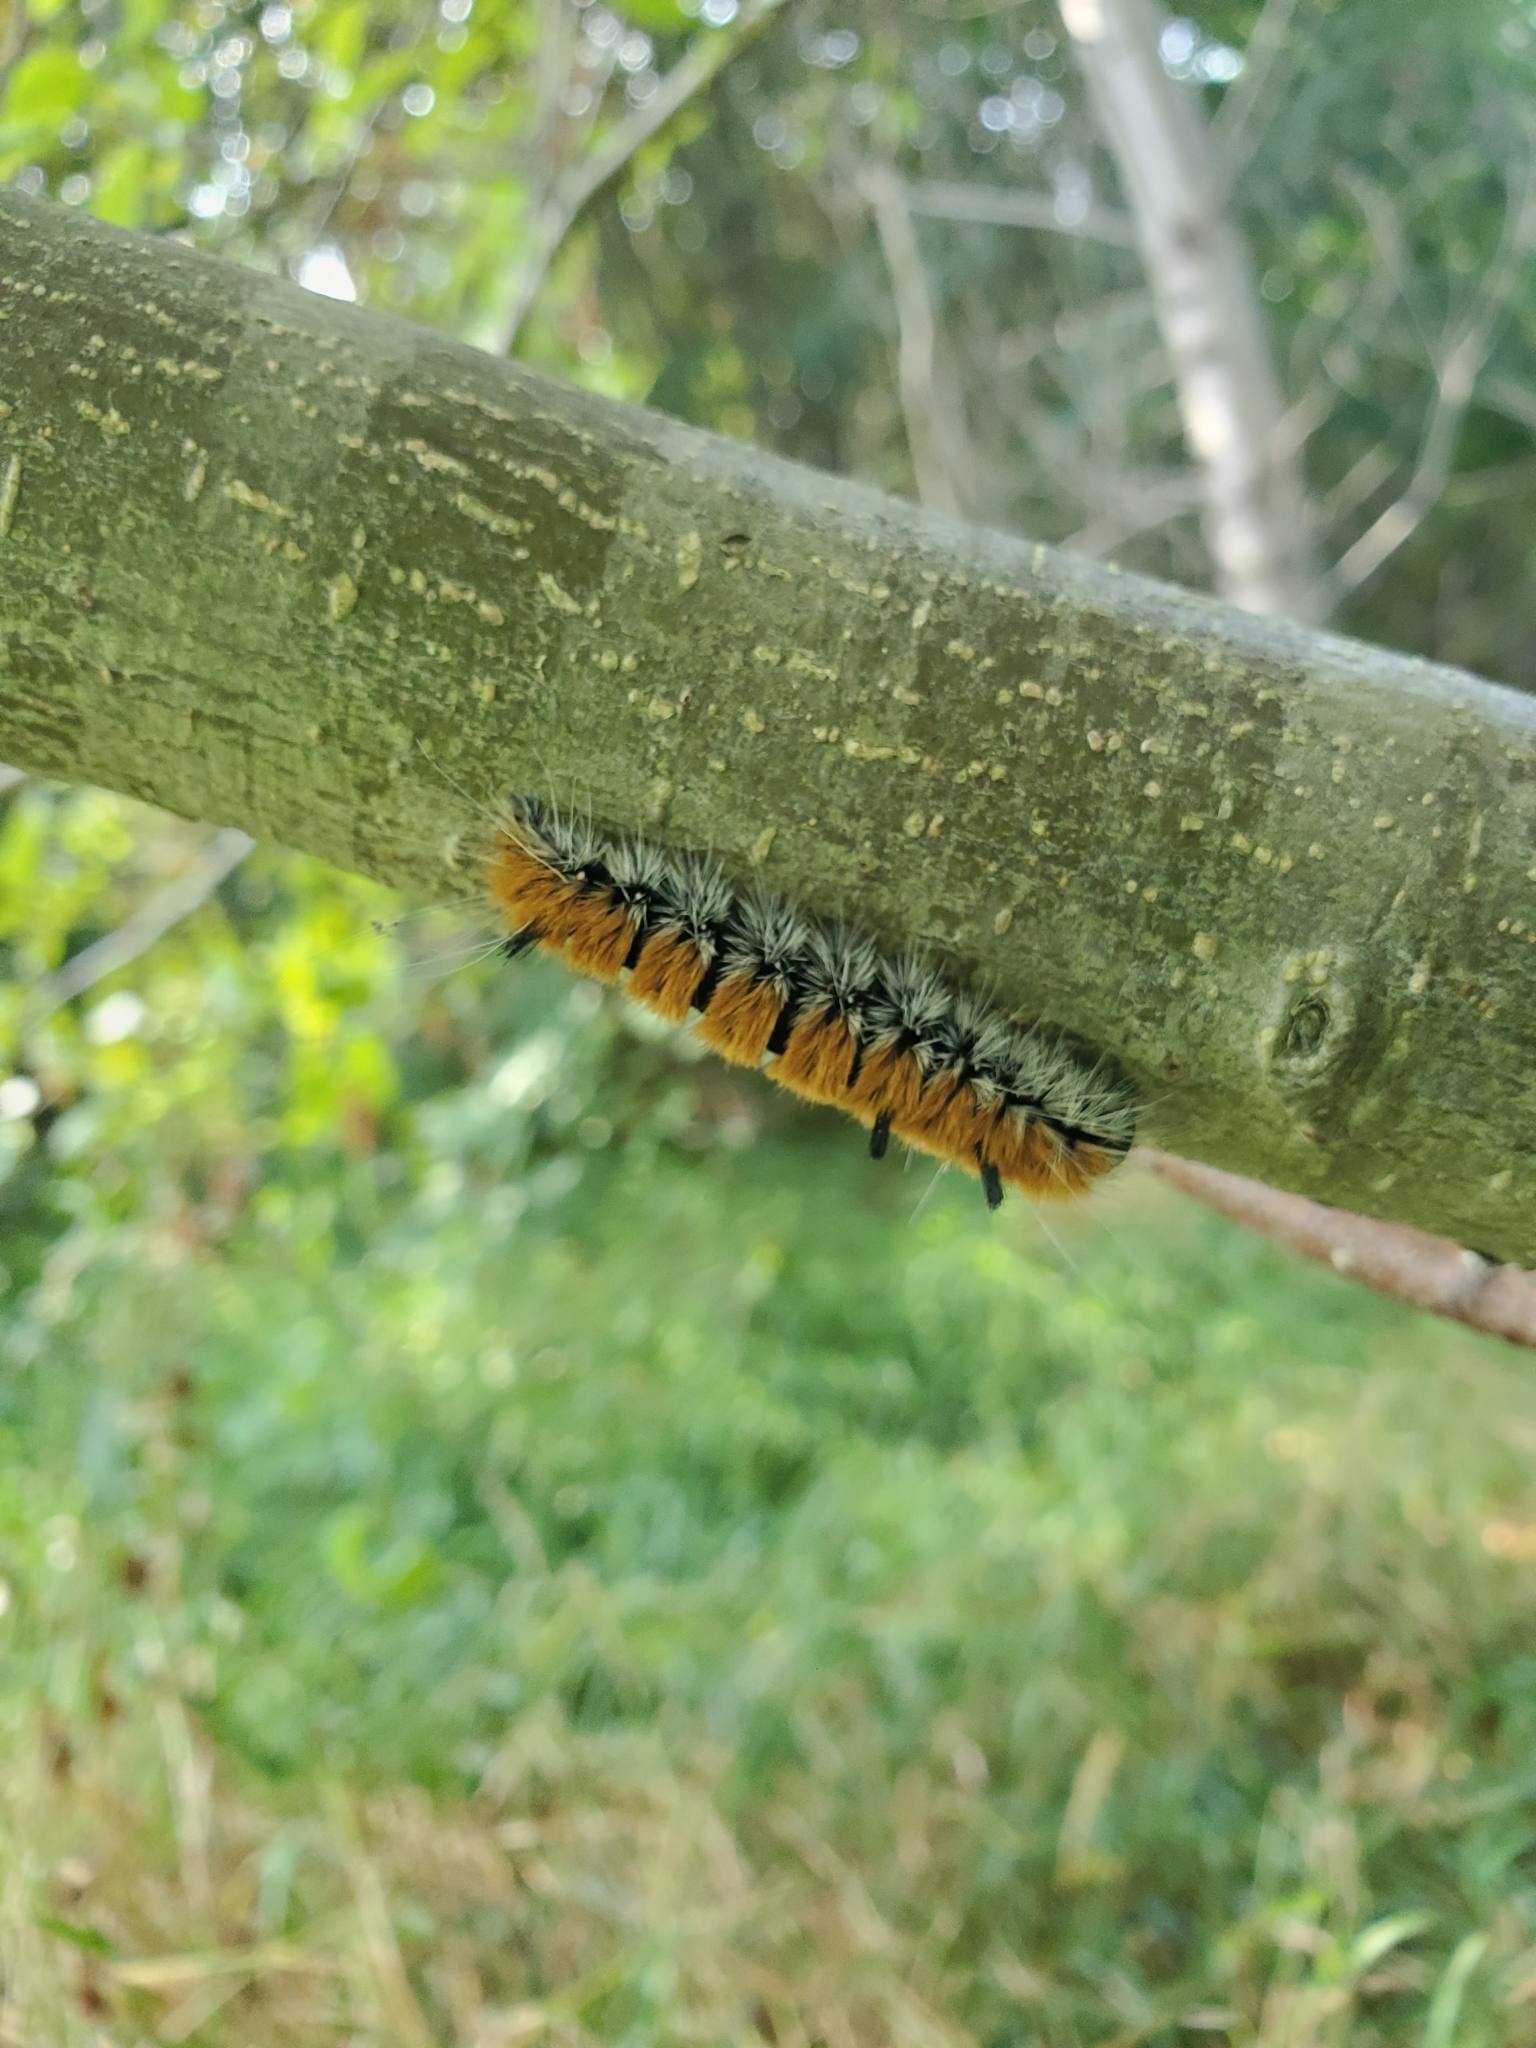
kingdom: Animalia
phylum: Arthropoda
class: Insecta
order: Lepidoptera
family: Noctuidae
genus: Acronicta
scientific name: Acronicta insita
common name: Large gray dagger
